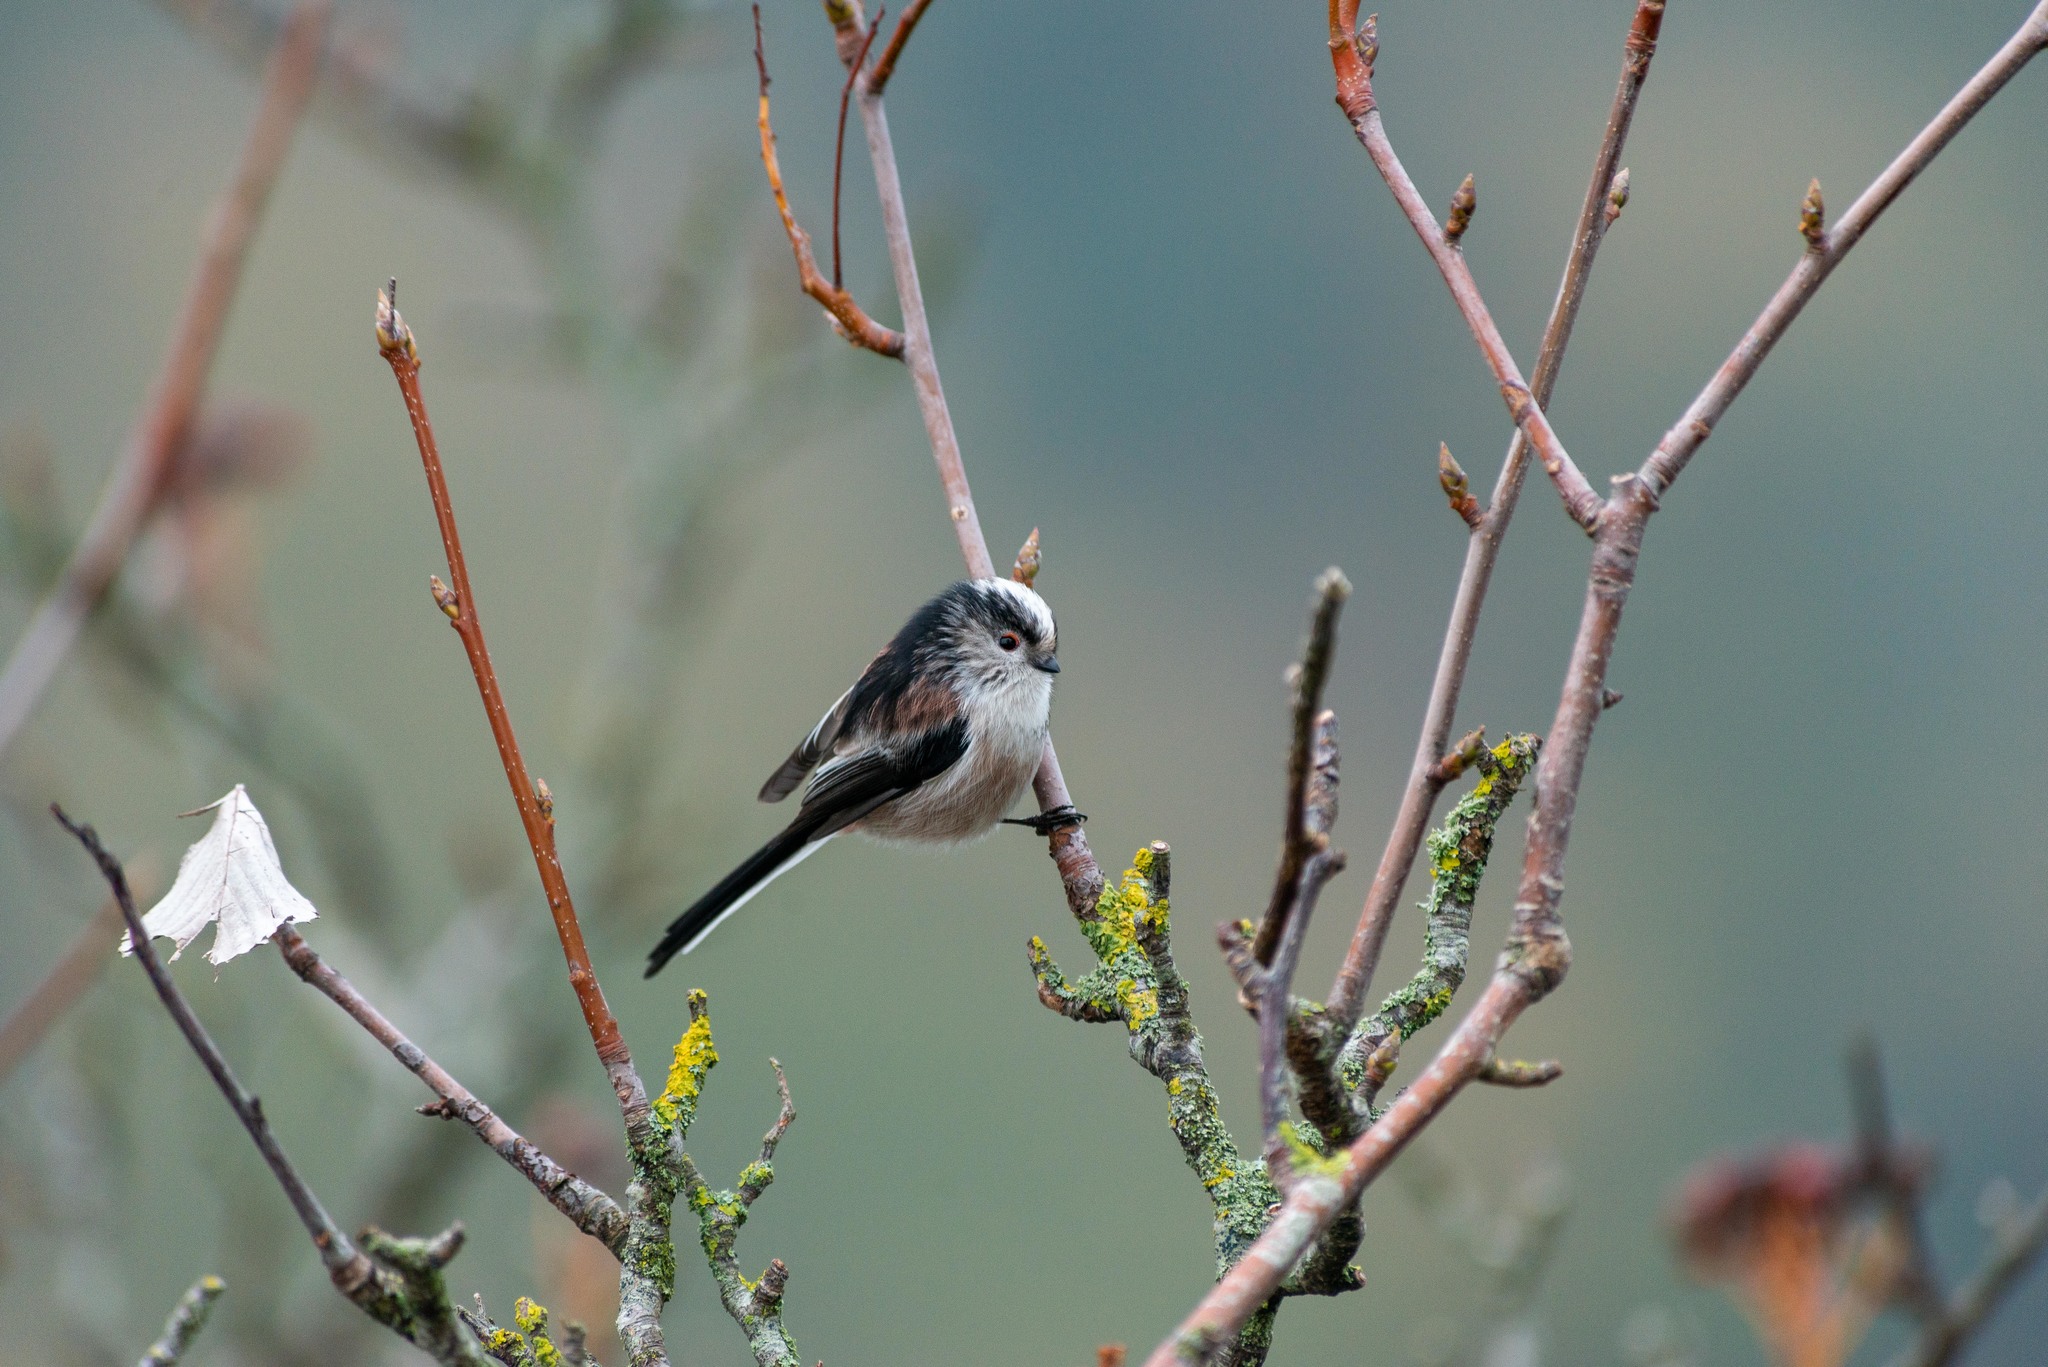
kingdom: Animalia
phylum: Chordata
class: Aves
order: Passeriformes
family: Aegithalidae
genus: Aegithalos
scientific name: Aegithalos caudatus
